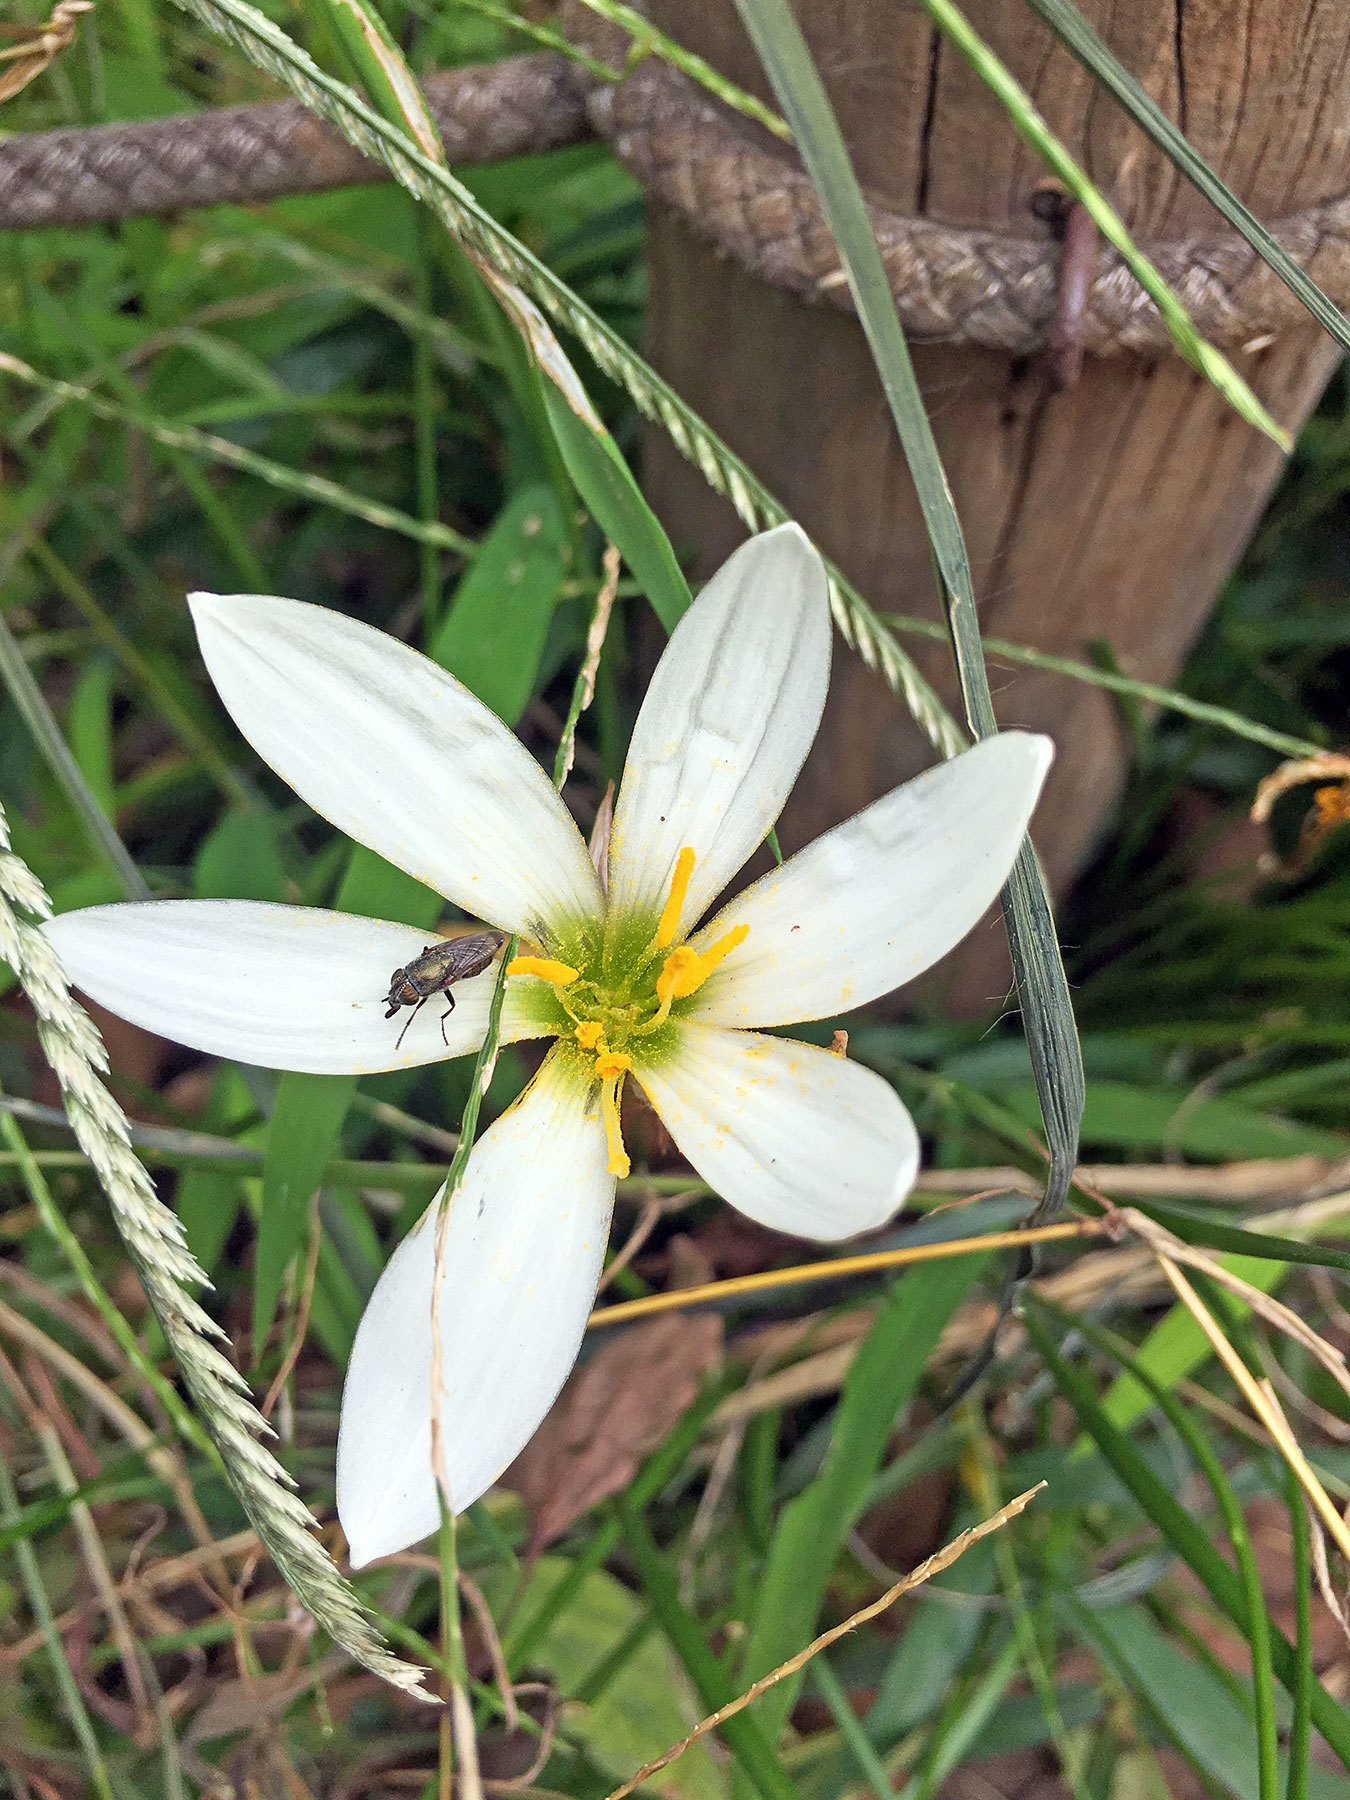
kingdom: Animalia
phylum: Arthropoda
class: Insecta
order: Diptera
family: Calliphoridae
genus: Rhinia
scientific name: Rhinia obsoleta
